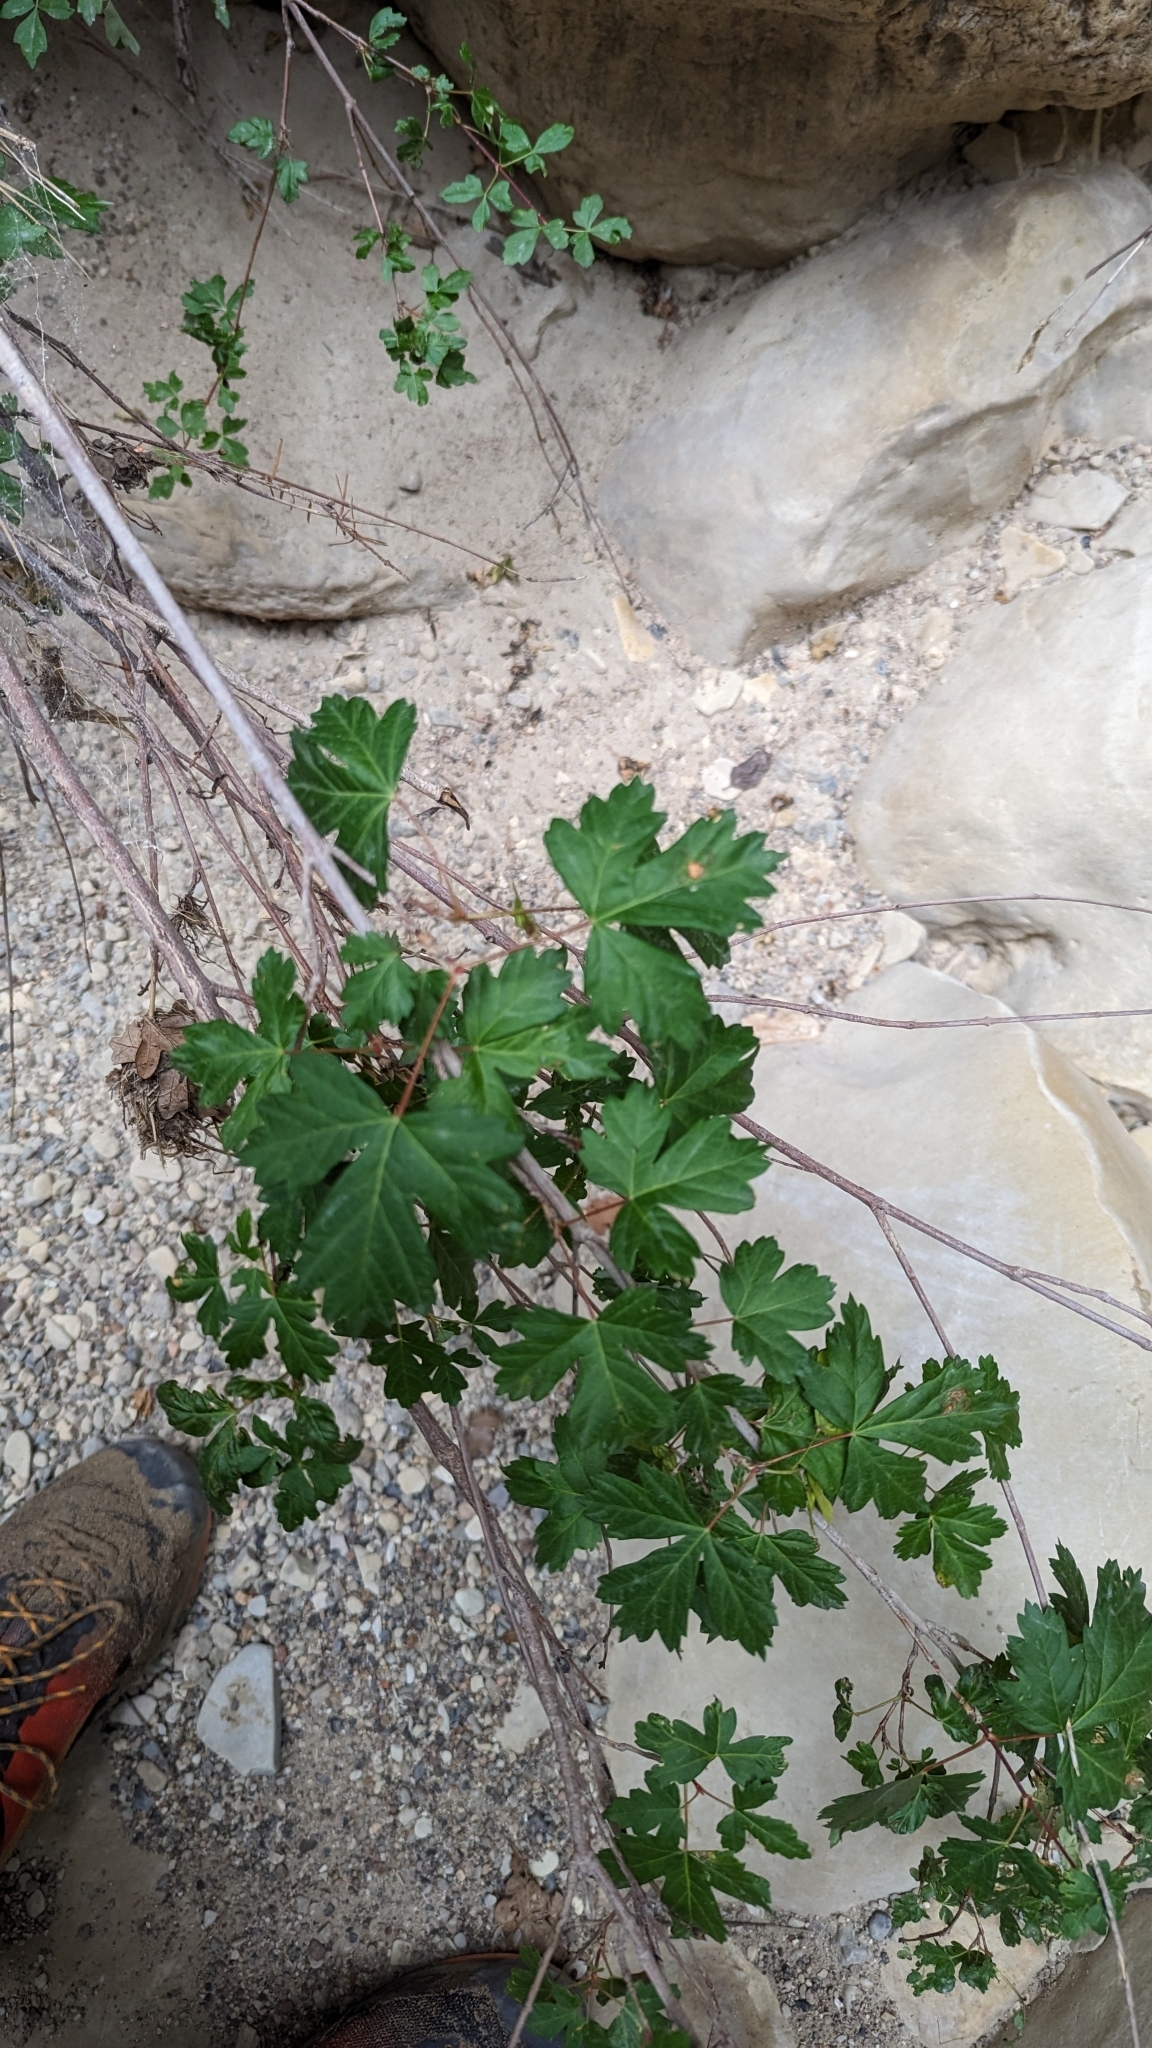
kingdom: Plantae
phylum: Tracheophyta
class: Magnoliopsida
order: Sapindales
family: Sapindaceae
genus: Acer
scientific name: Acer glabrum
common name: Rocky mountain maple
